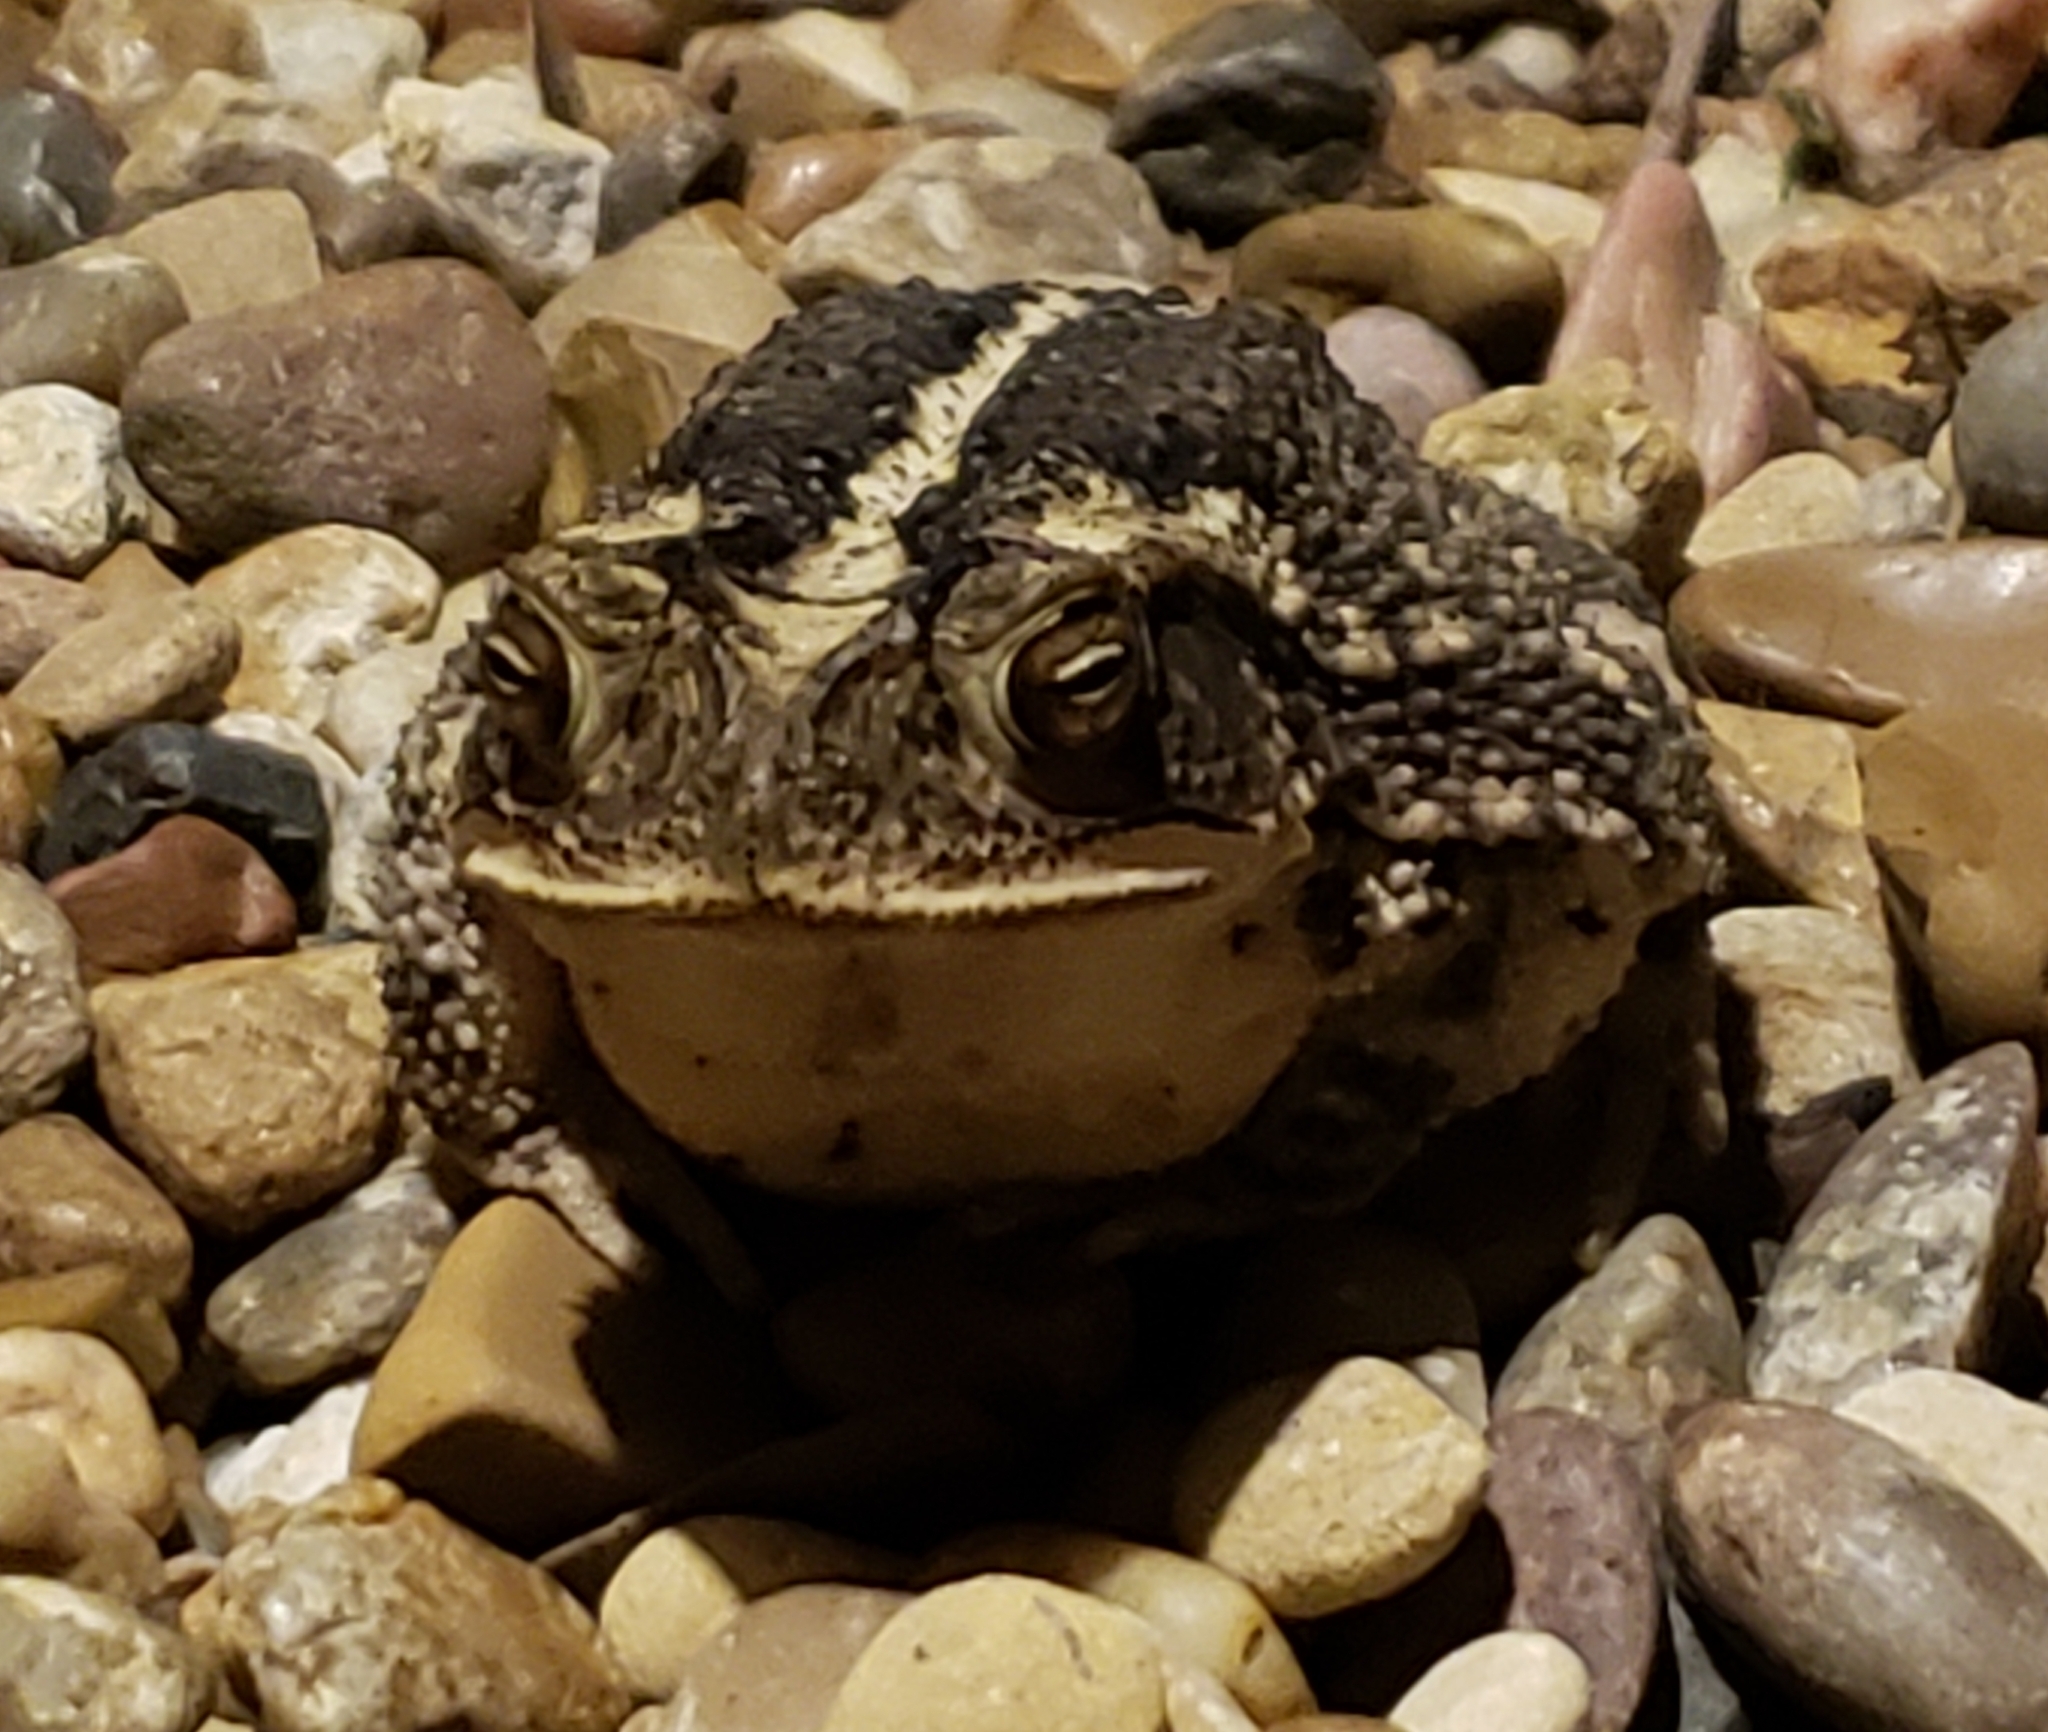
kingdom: Animalia
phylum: Chordata
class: Amphibia
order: Anura
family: Bufonidae
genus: Incilius
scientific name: Incilius nebulifer
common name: Gulf coast toad
